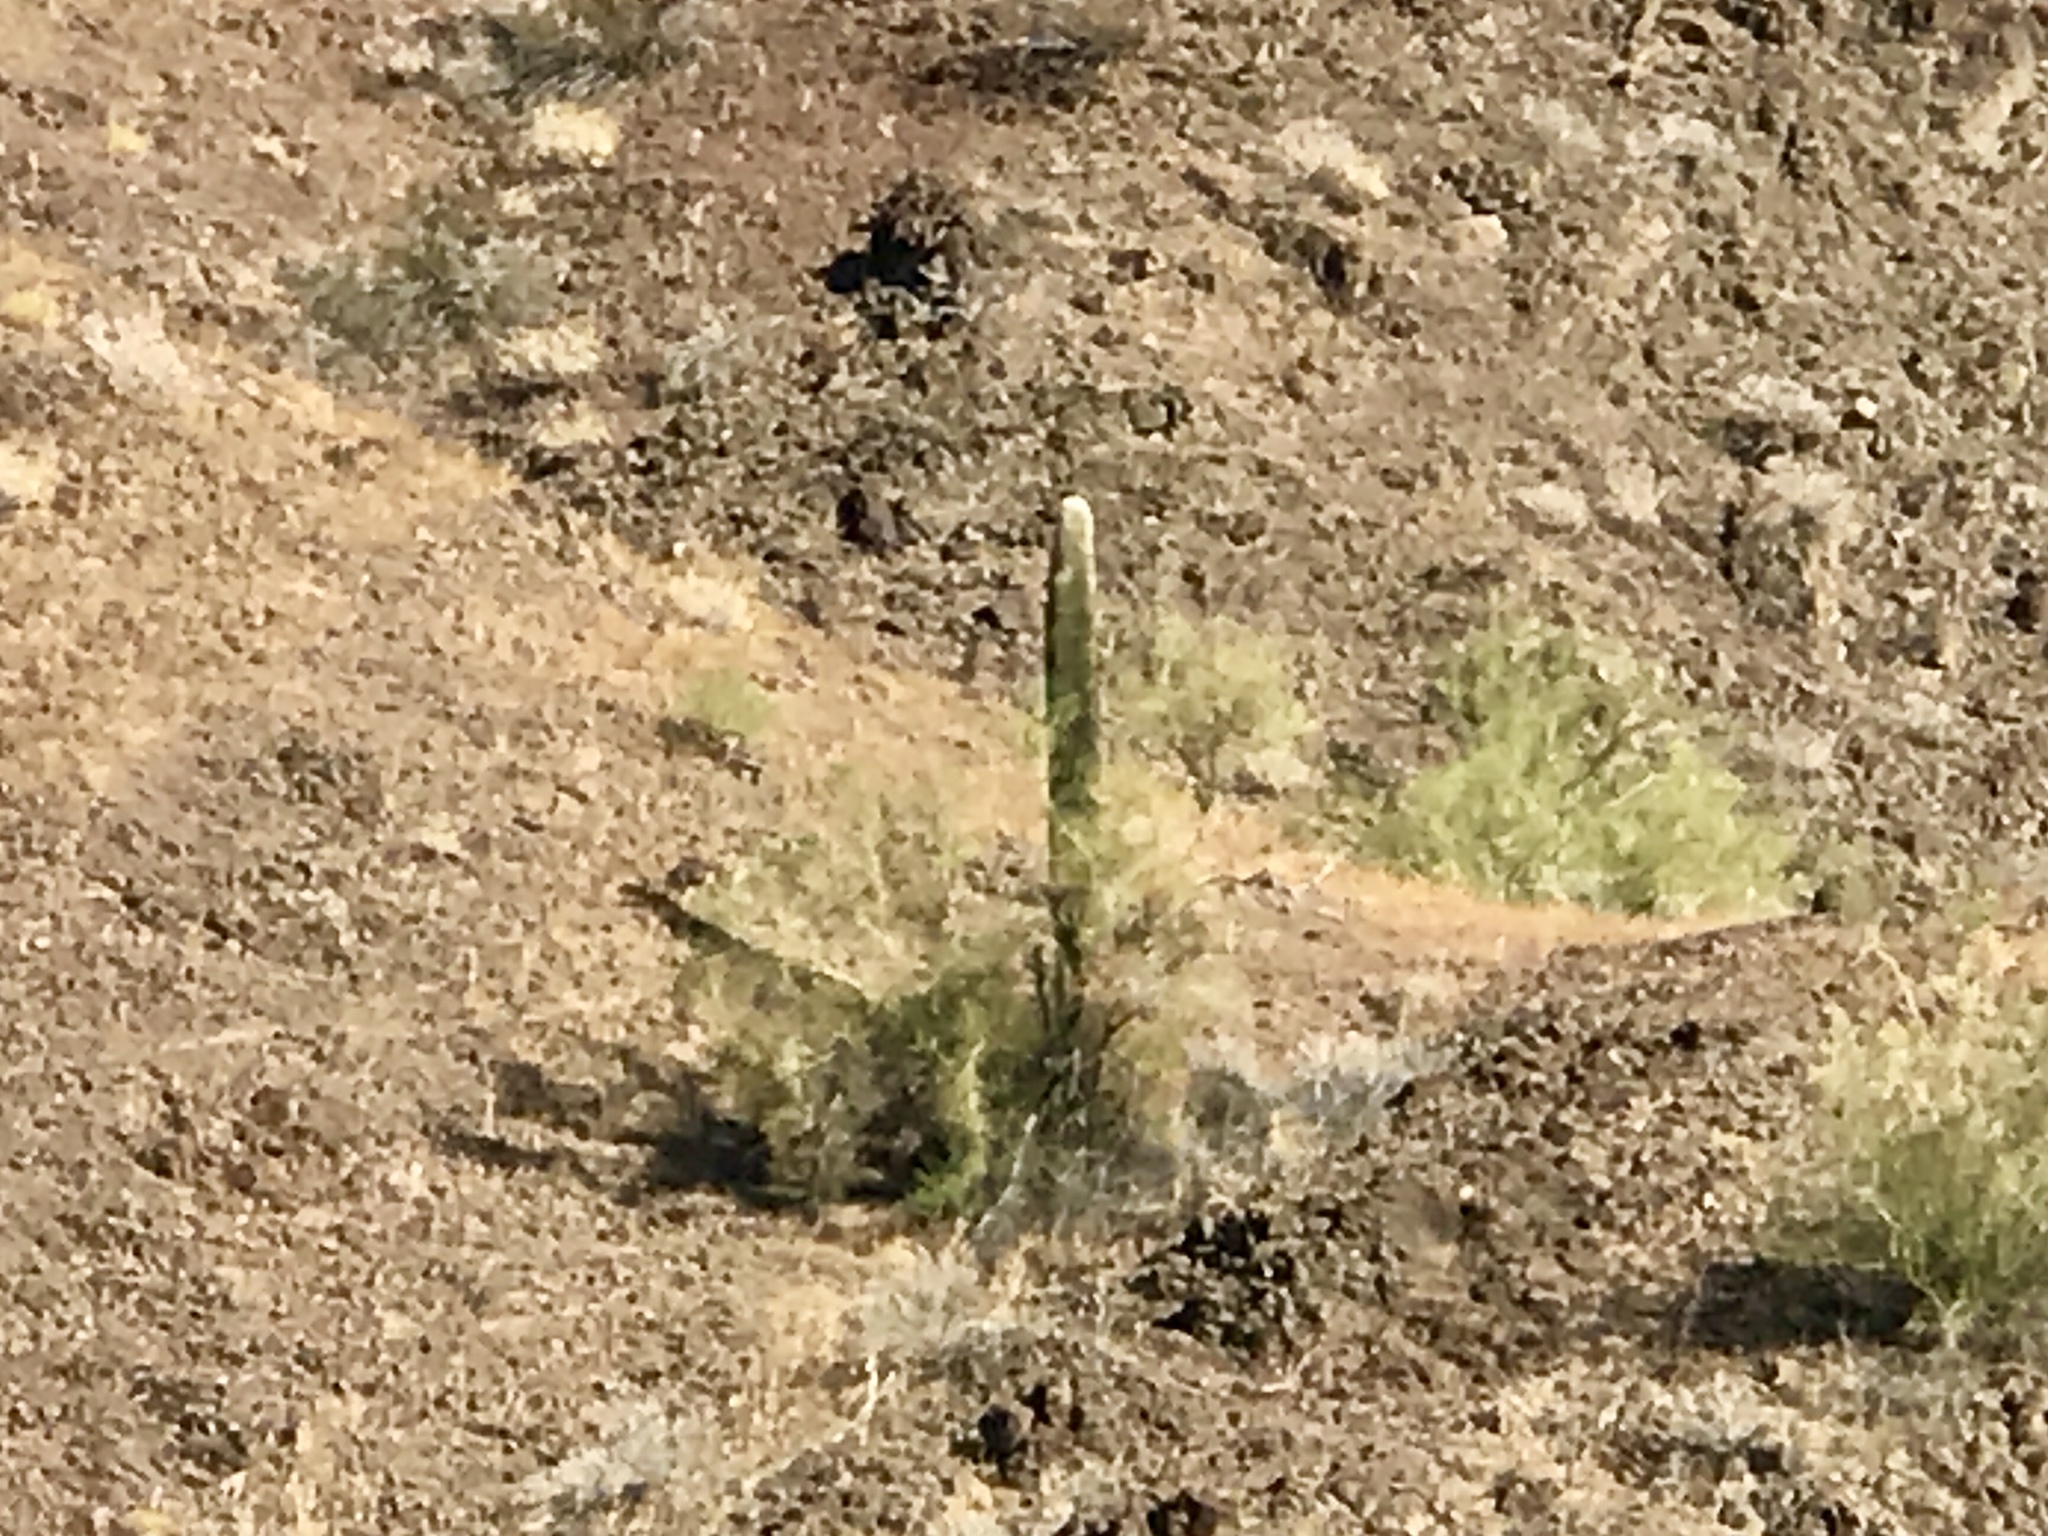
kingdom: Plantae
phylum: Tracheophyta
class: Magnoliopsida
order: Caryophyllales
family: Cactaceae
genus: Carnegiea
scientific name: Carnegiea gigantea
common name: Saguaro
